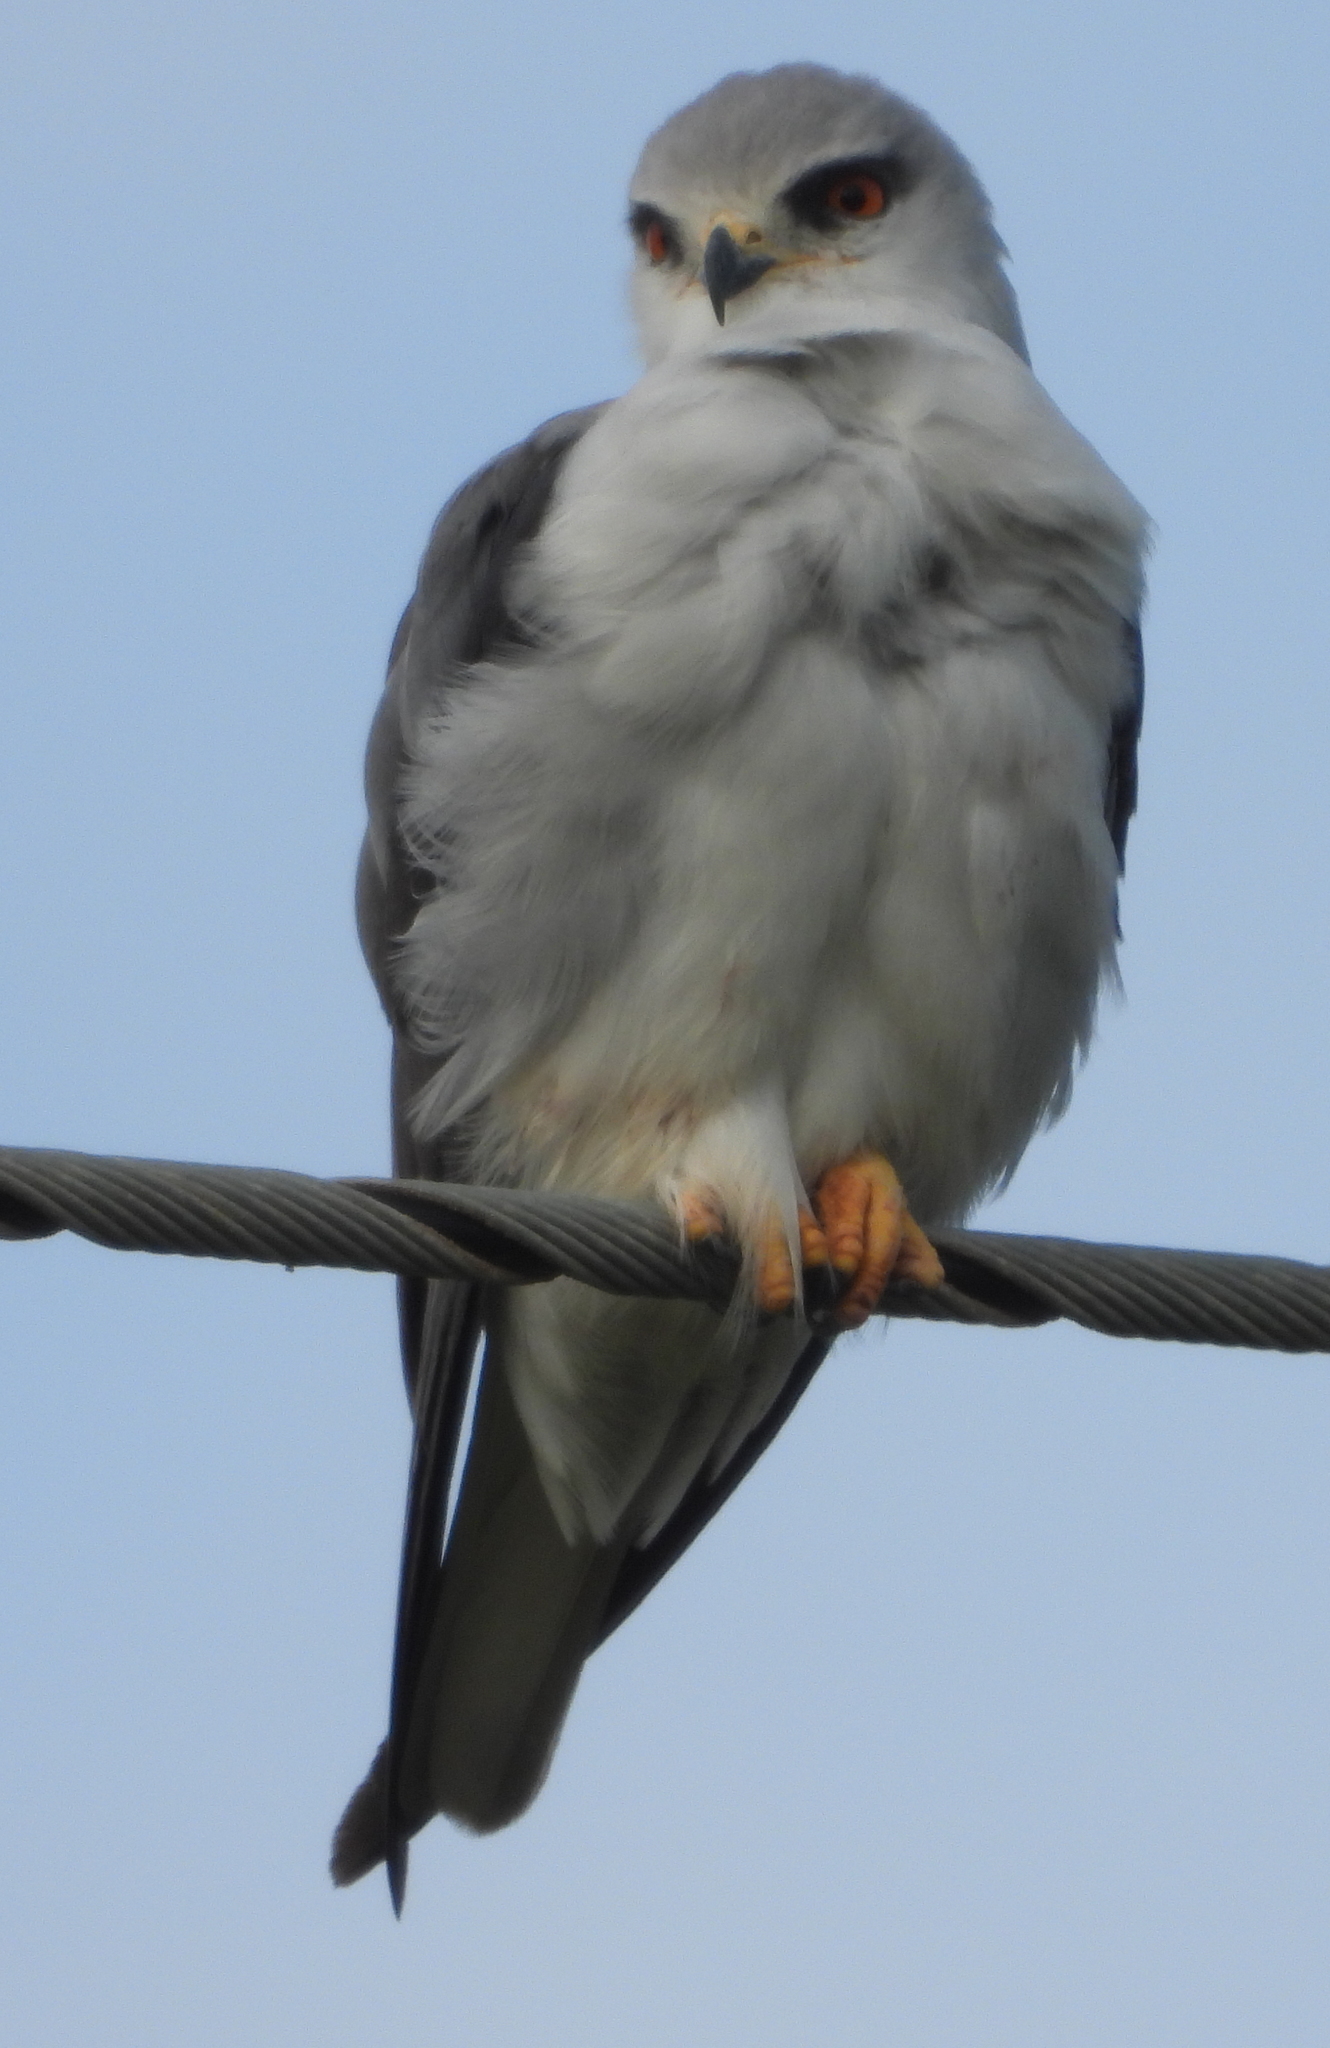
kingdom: Animalia
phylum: Chordata
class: Aves
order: Accipitriformes
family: Accipitridae
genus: Elanus
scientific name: Elanus caeruleus
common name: Black-winged kite
